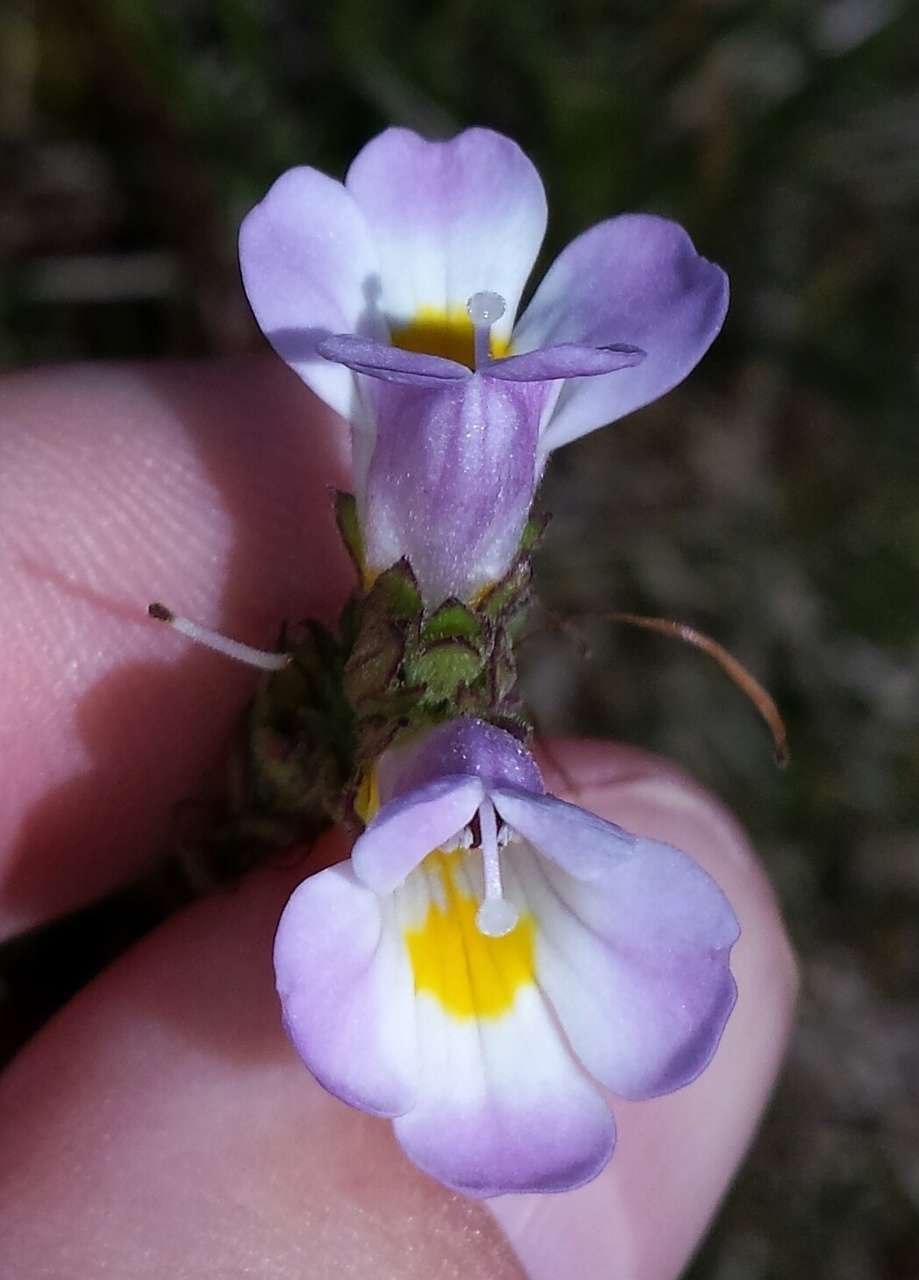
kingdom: Plantae
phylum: Tracheophyta
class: Magnoliopsida
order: Lamiales
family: Orobanchaceae
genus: Euphrasia
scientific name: Euphrasia collina
